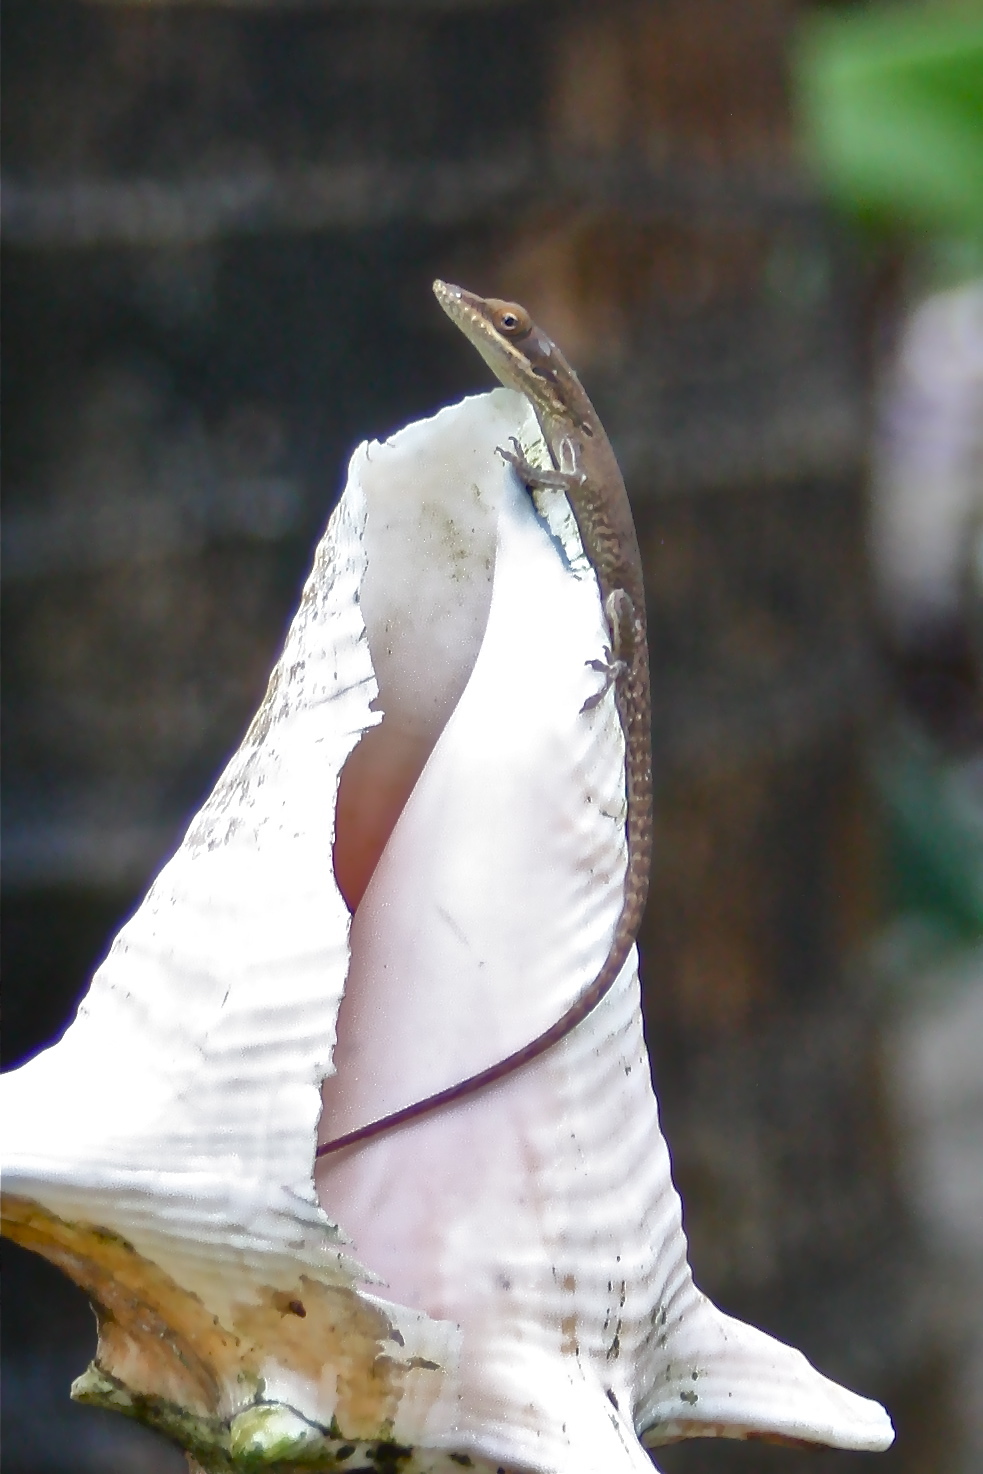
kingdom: Animalia
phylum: Chordata
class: Squamata
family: Dactyloidae
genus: Anolis
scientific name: Anolis allisoni
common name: Allison's anole
